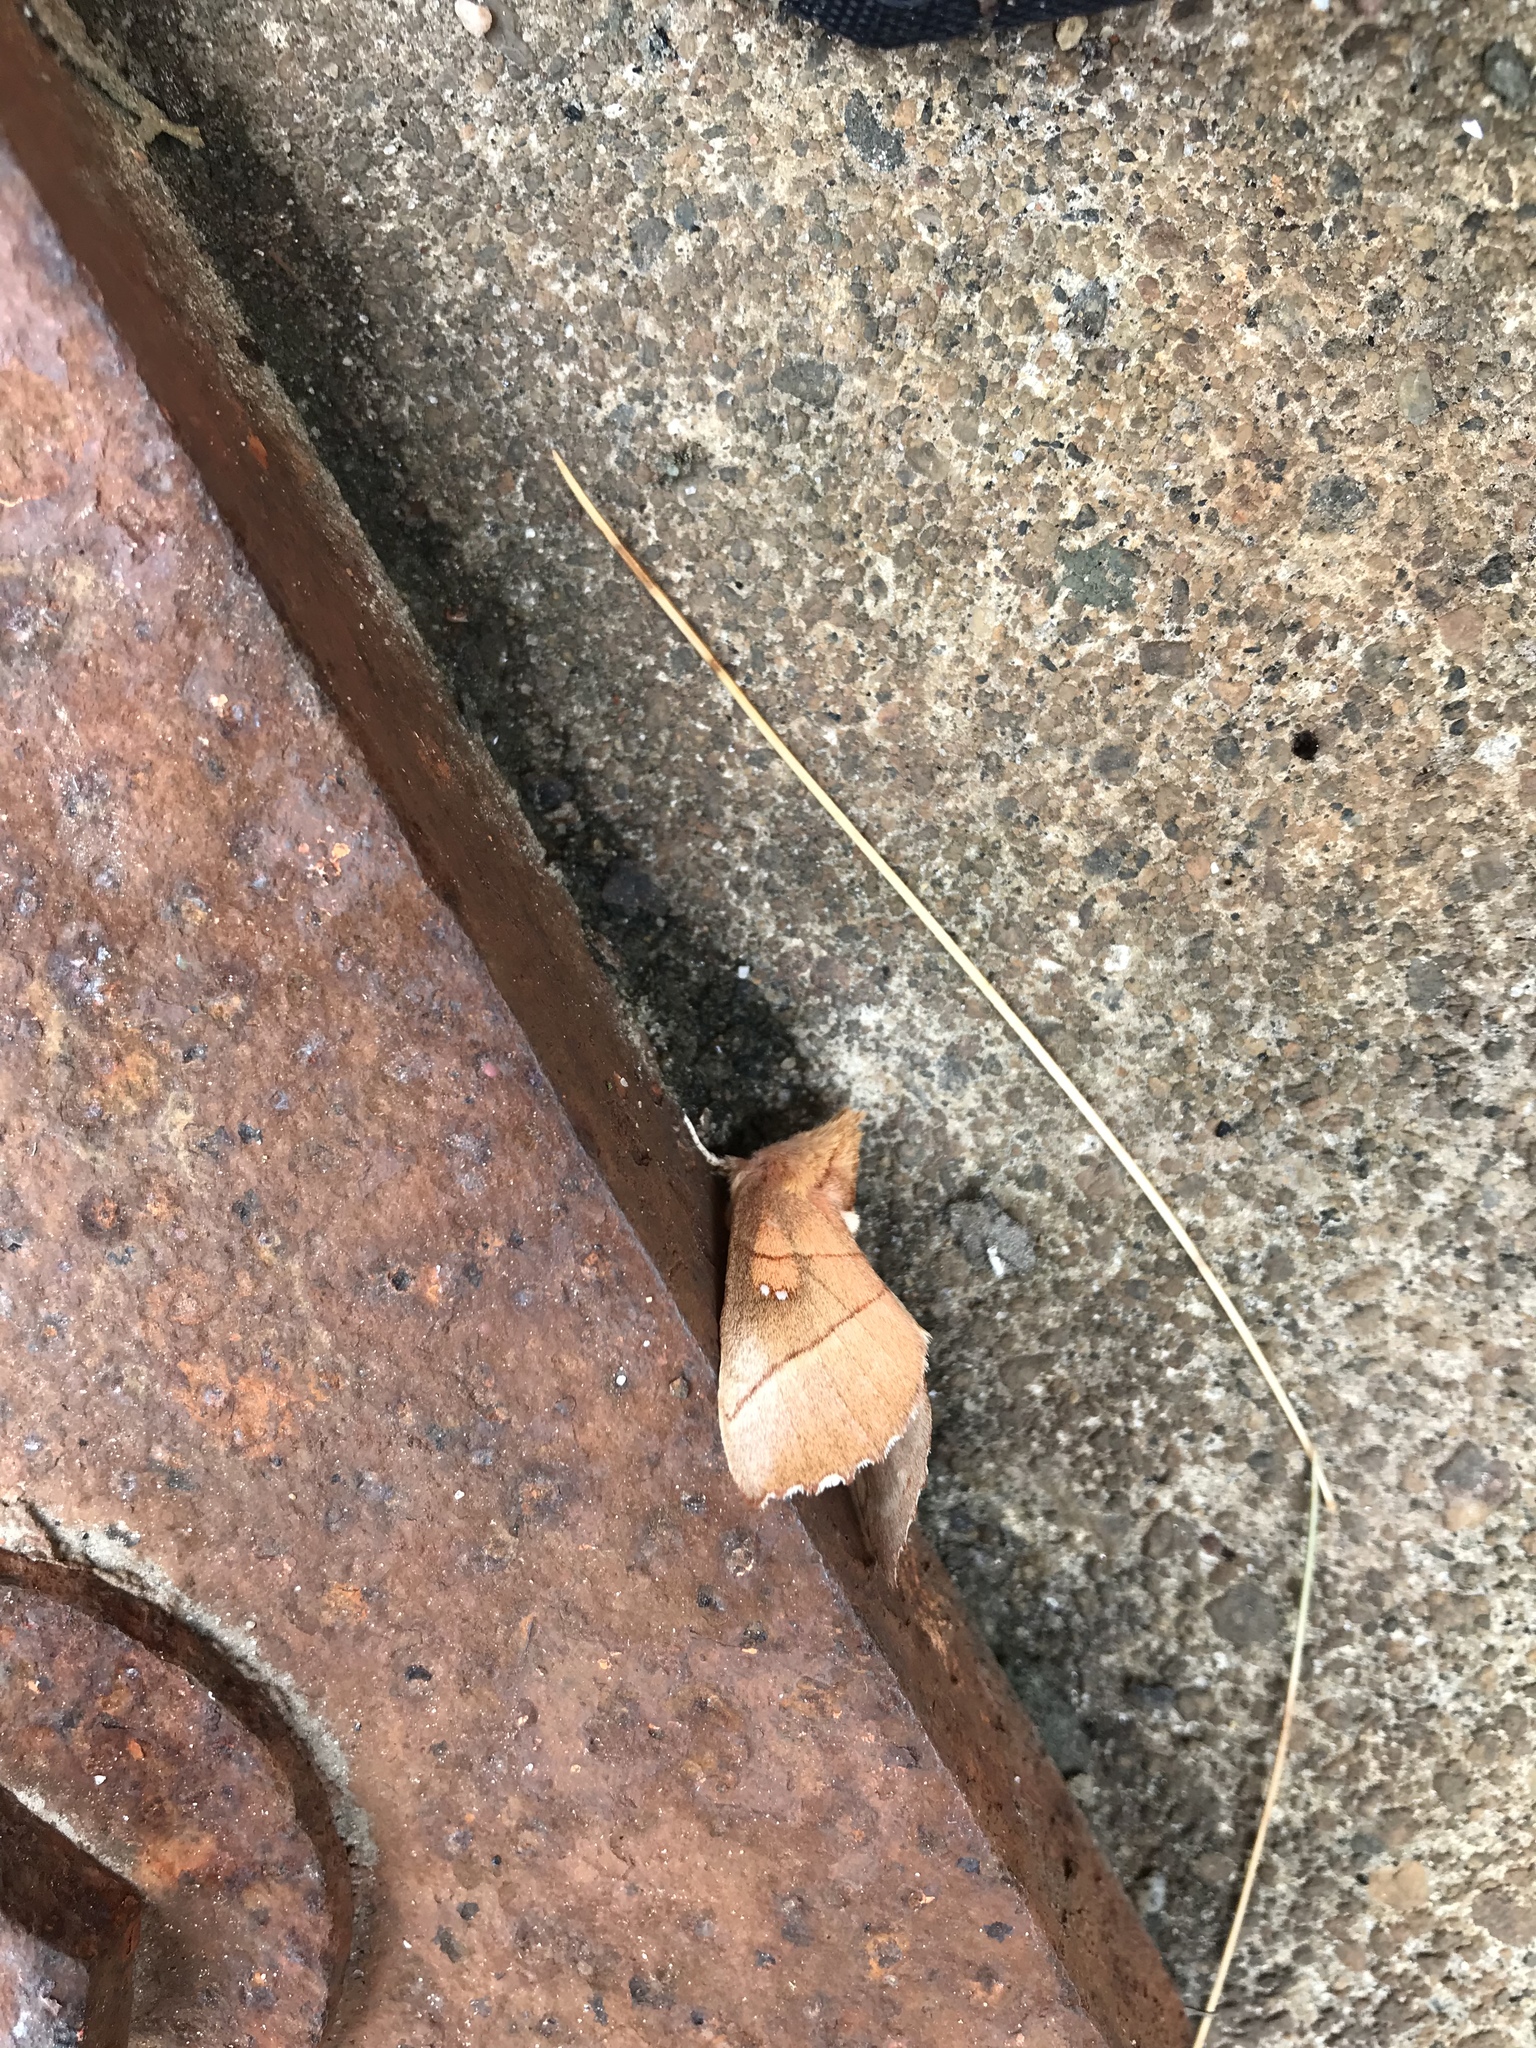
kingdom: Animalia
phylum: Arthropoda
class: Insecta
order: Lepidoptera
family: Notodontidae
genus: Nadata
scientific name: Nadata gibbosa
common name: White-dotted prominent
